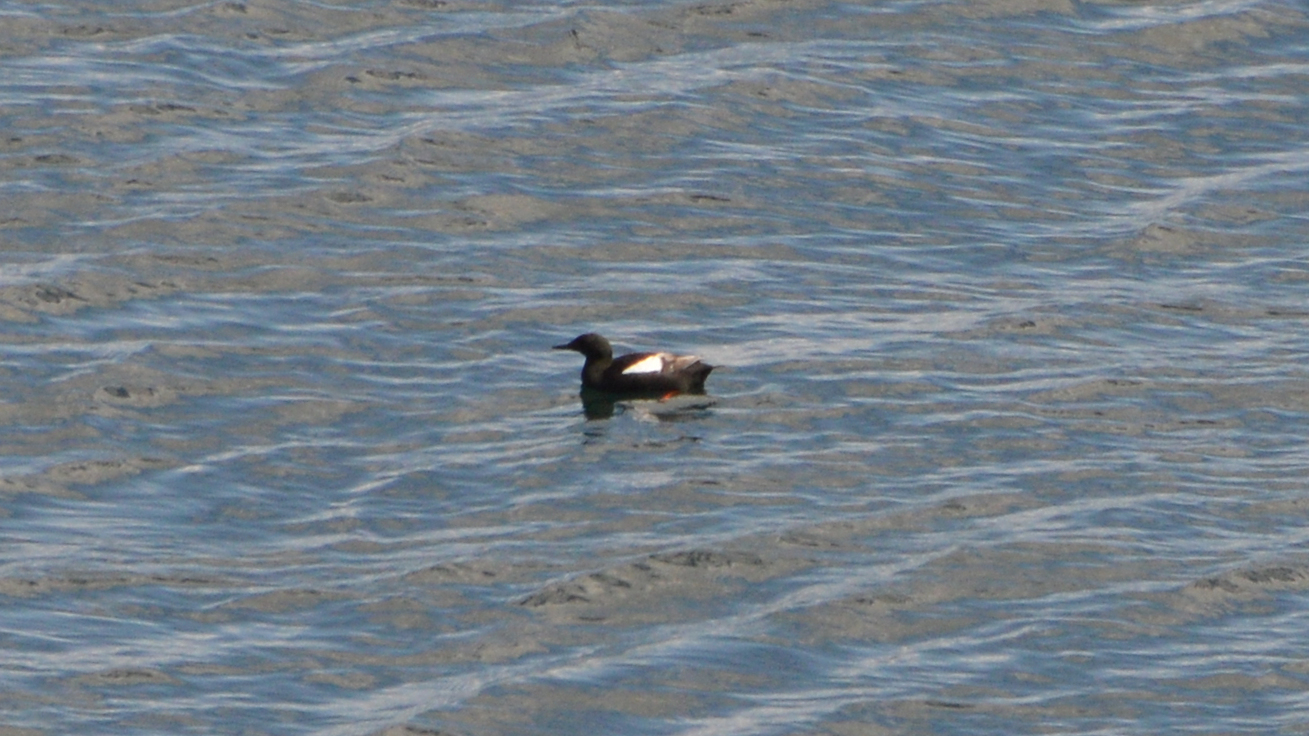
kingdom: Animalia
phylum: Chordata
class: Aves
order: Charadriiformes
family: Alcidae
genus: Cepphus
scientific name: Cepphus grylle
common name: Black guillemot
